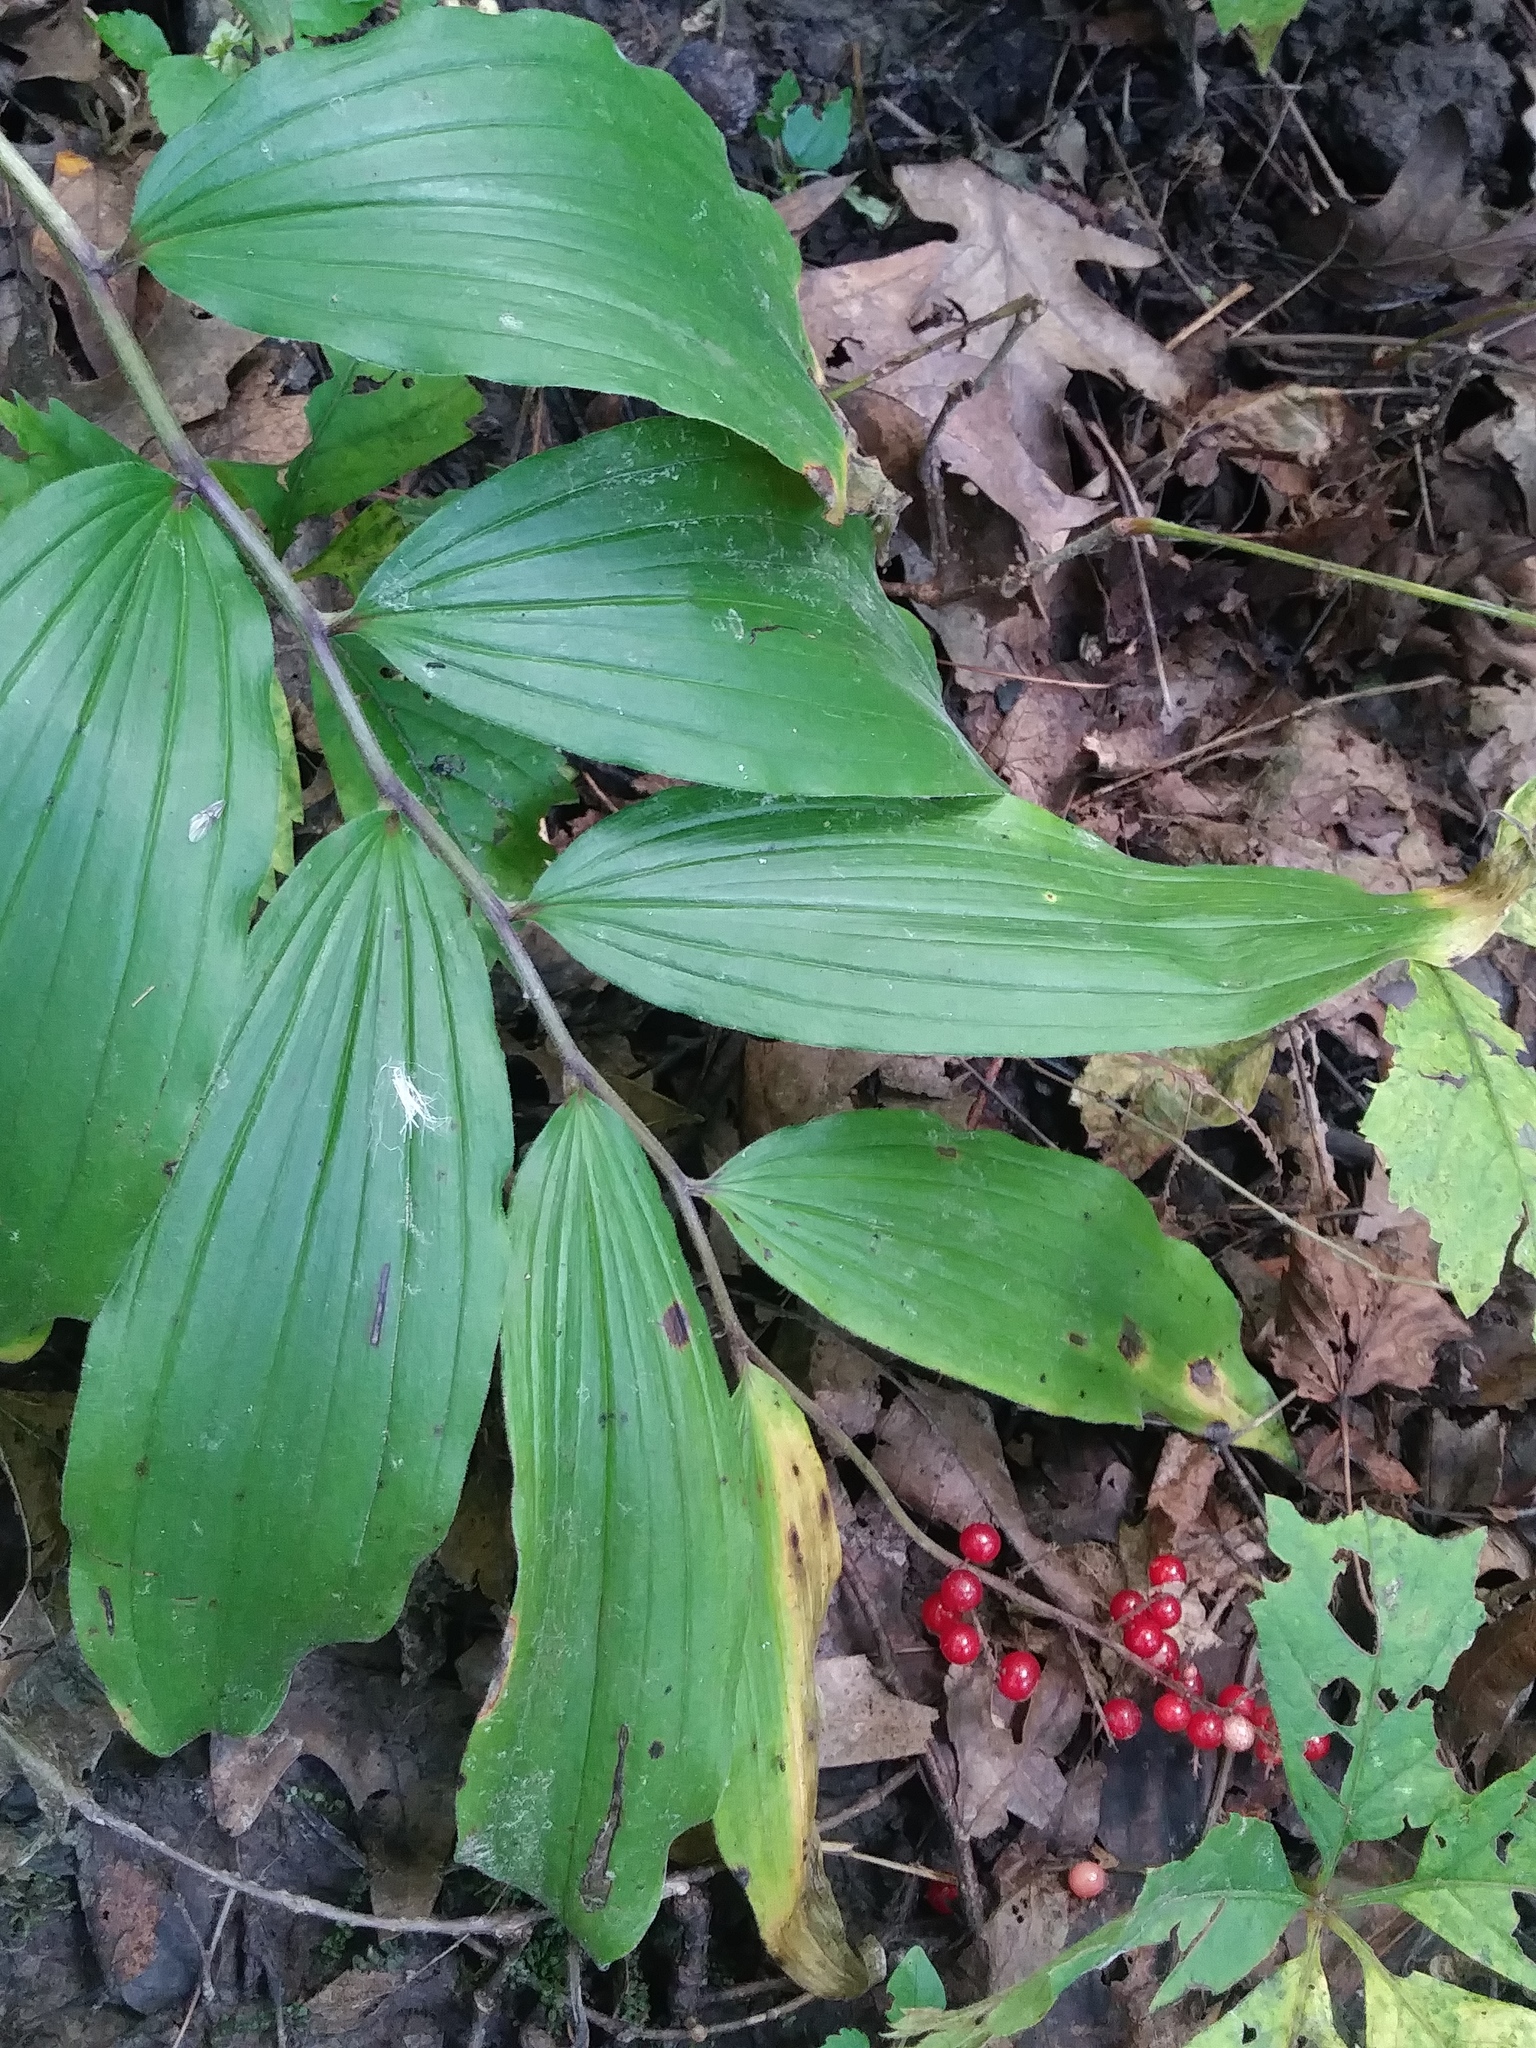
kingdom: Plantae
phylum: Tracheophyta
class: Liliopsida
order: Asparagales
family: Asparagaceae
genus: Maianthemum
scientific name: Maianthemum racemosum
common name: False spikenard
